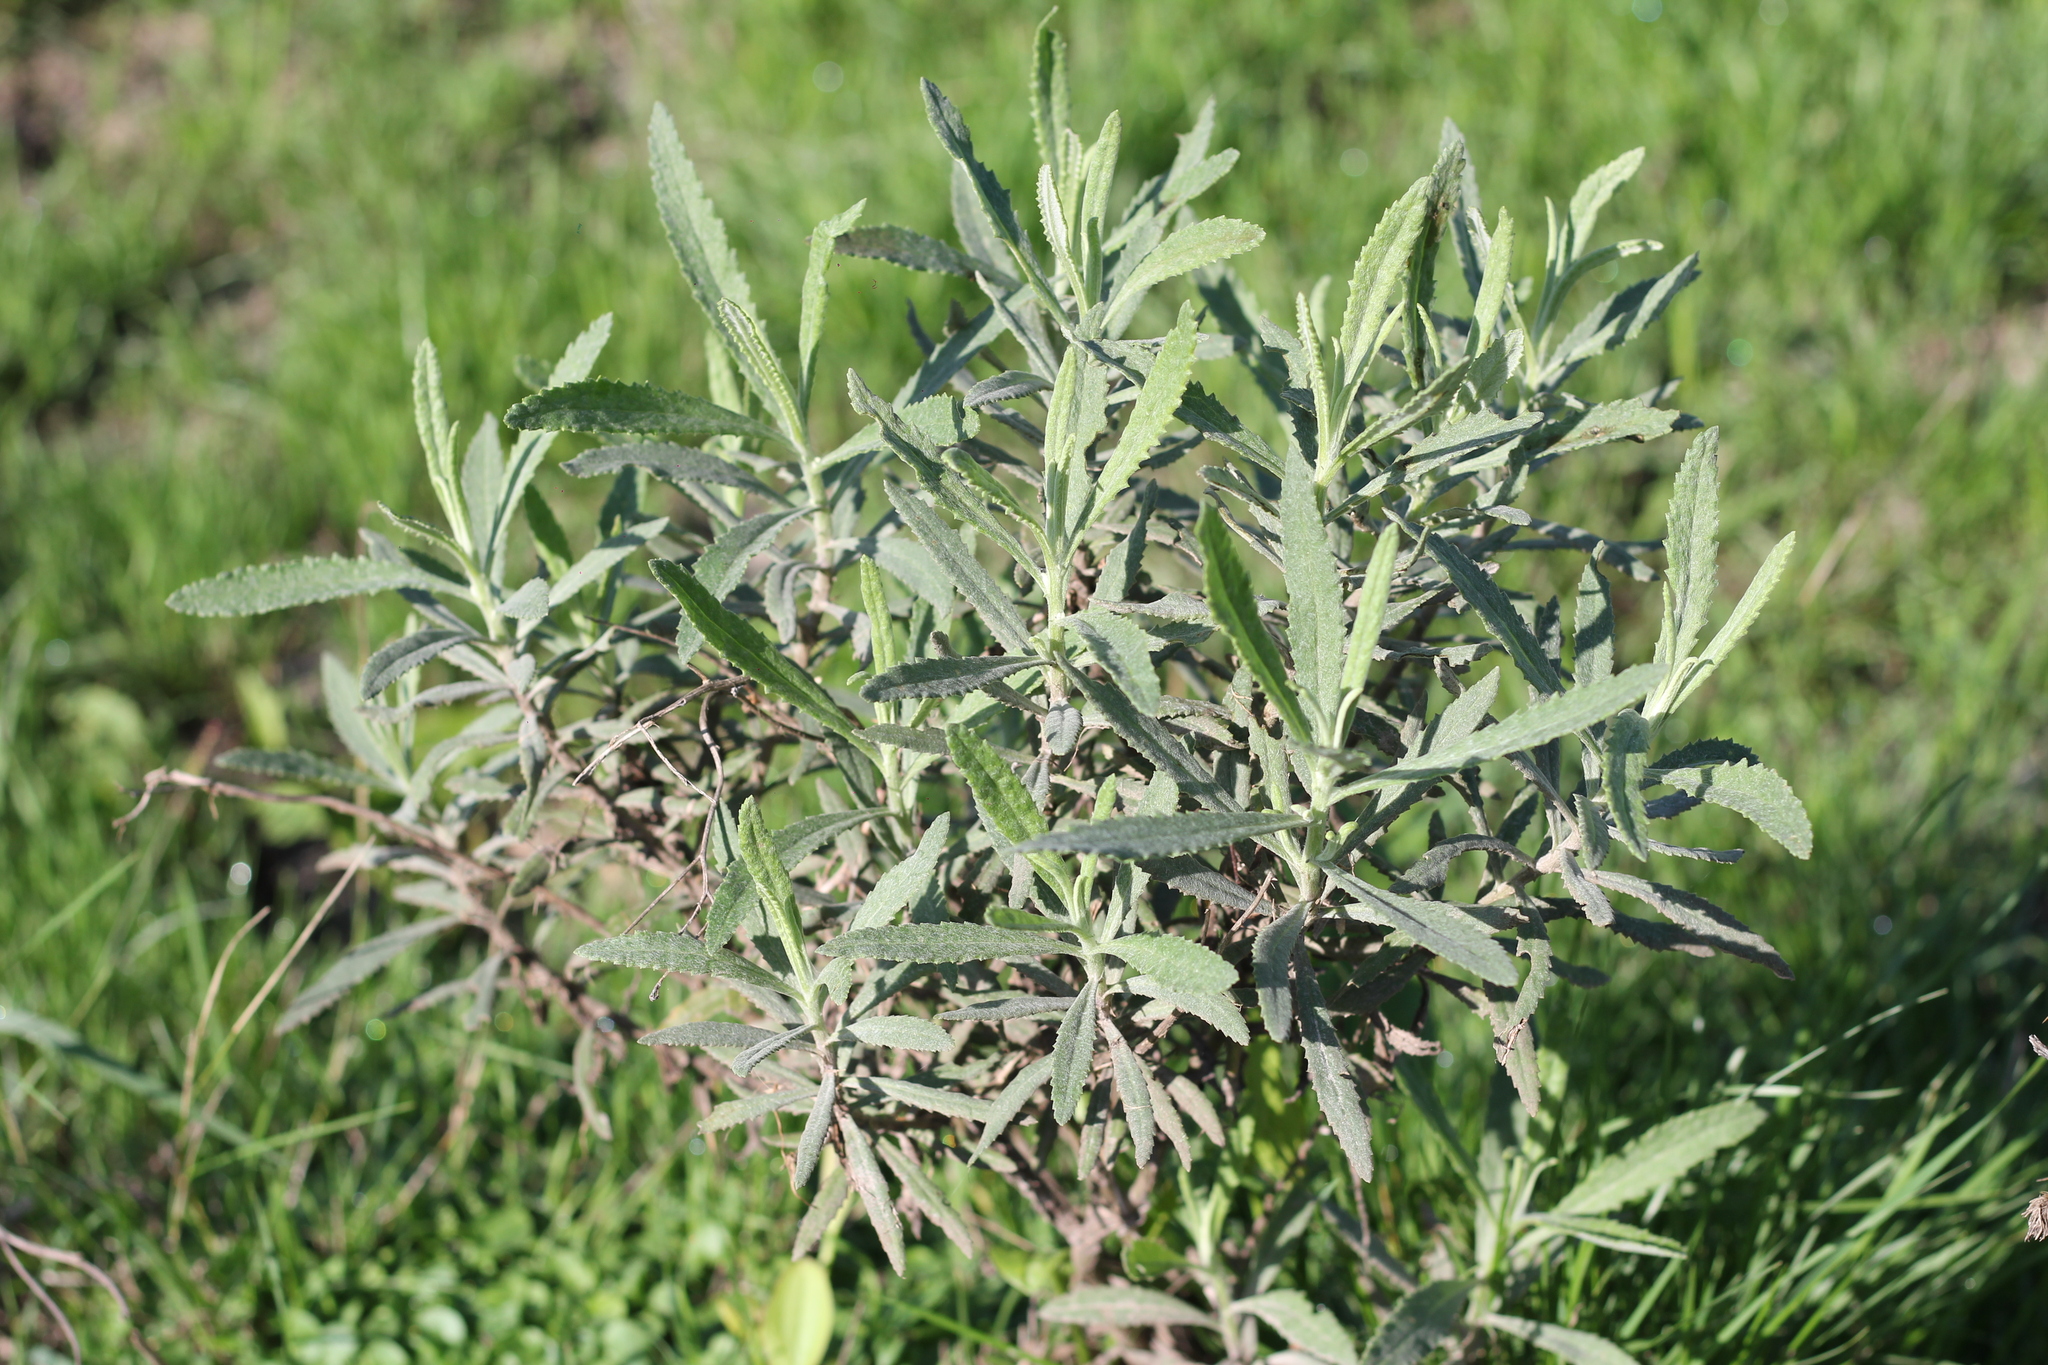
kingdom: Plantae
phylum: Tracheophyta
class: Magnoliopsida
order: Asterales
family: Asteraceae
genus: Senecio
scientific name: Senecio pterophorus
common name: Shoddy ragwort
